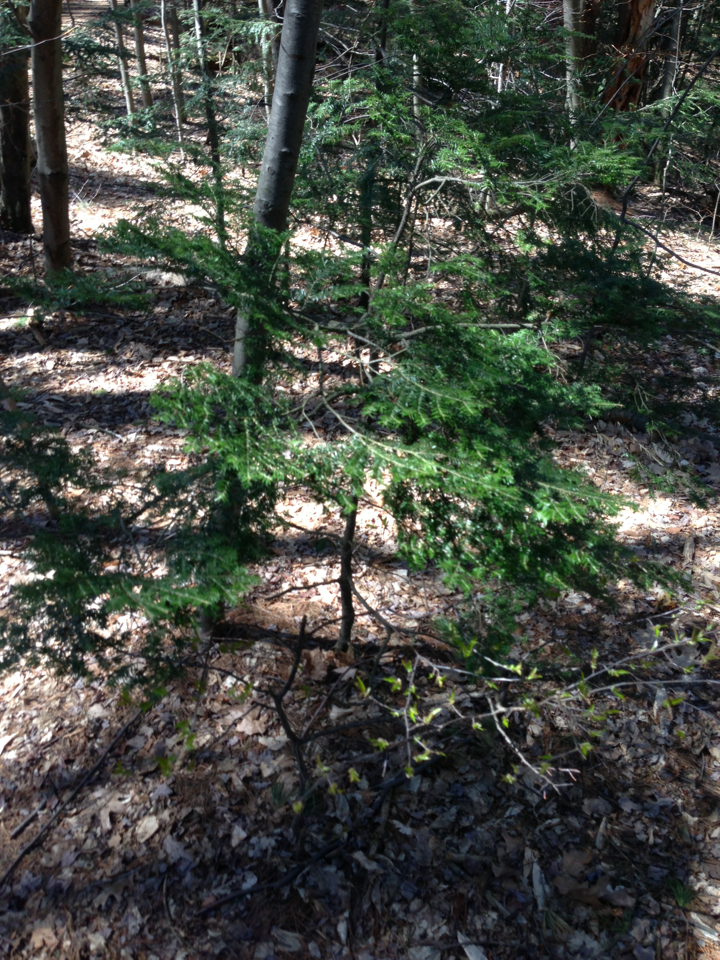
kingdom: Plantae
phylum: Tracheophyta
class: Pinopsida
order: Pinales
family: Pinaceae
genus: Tsuga
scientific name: Tsuga canadensis
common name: Eastern hemlock
